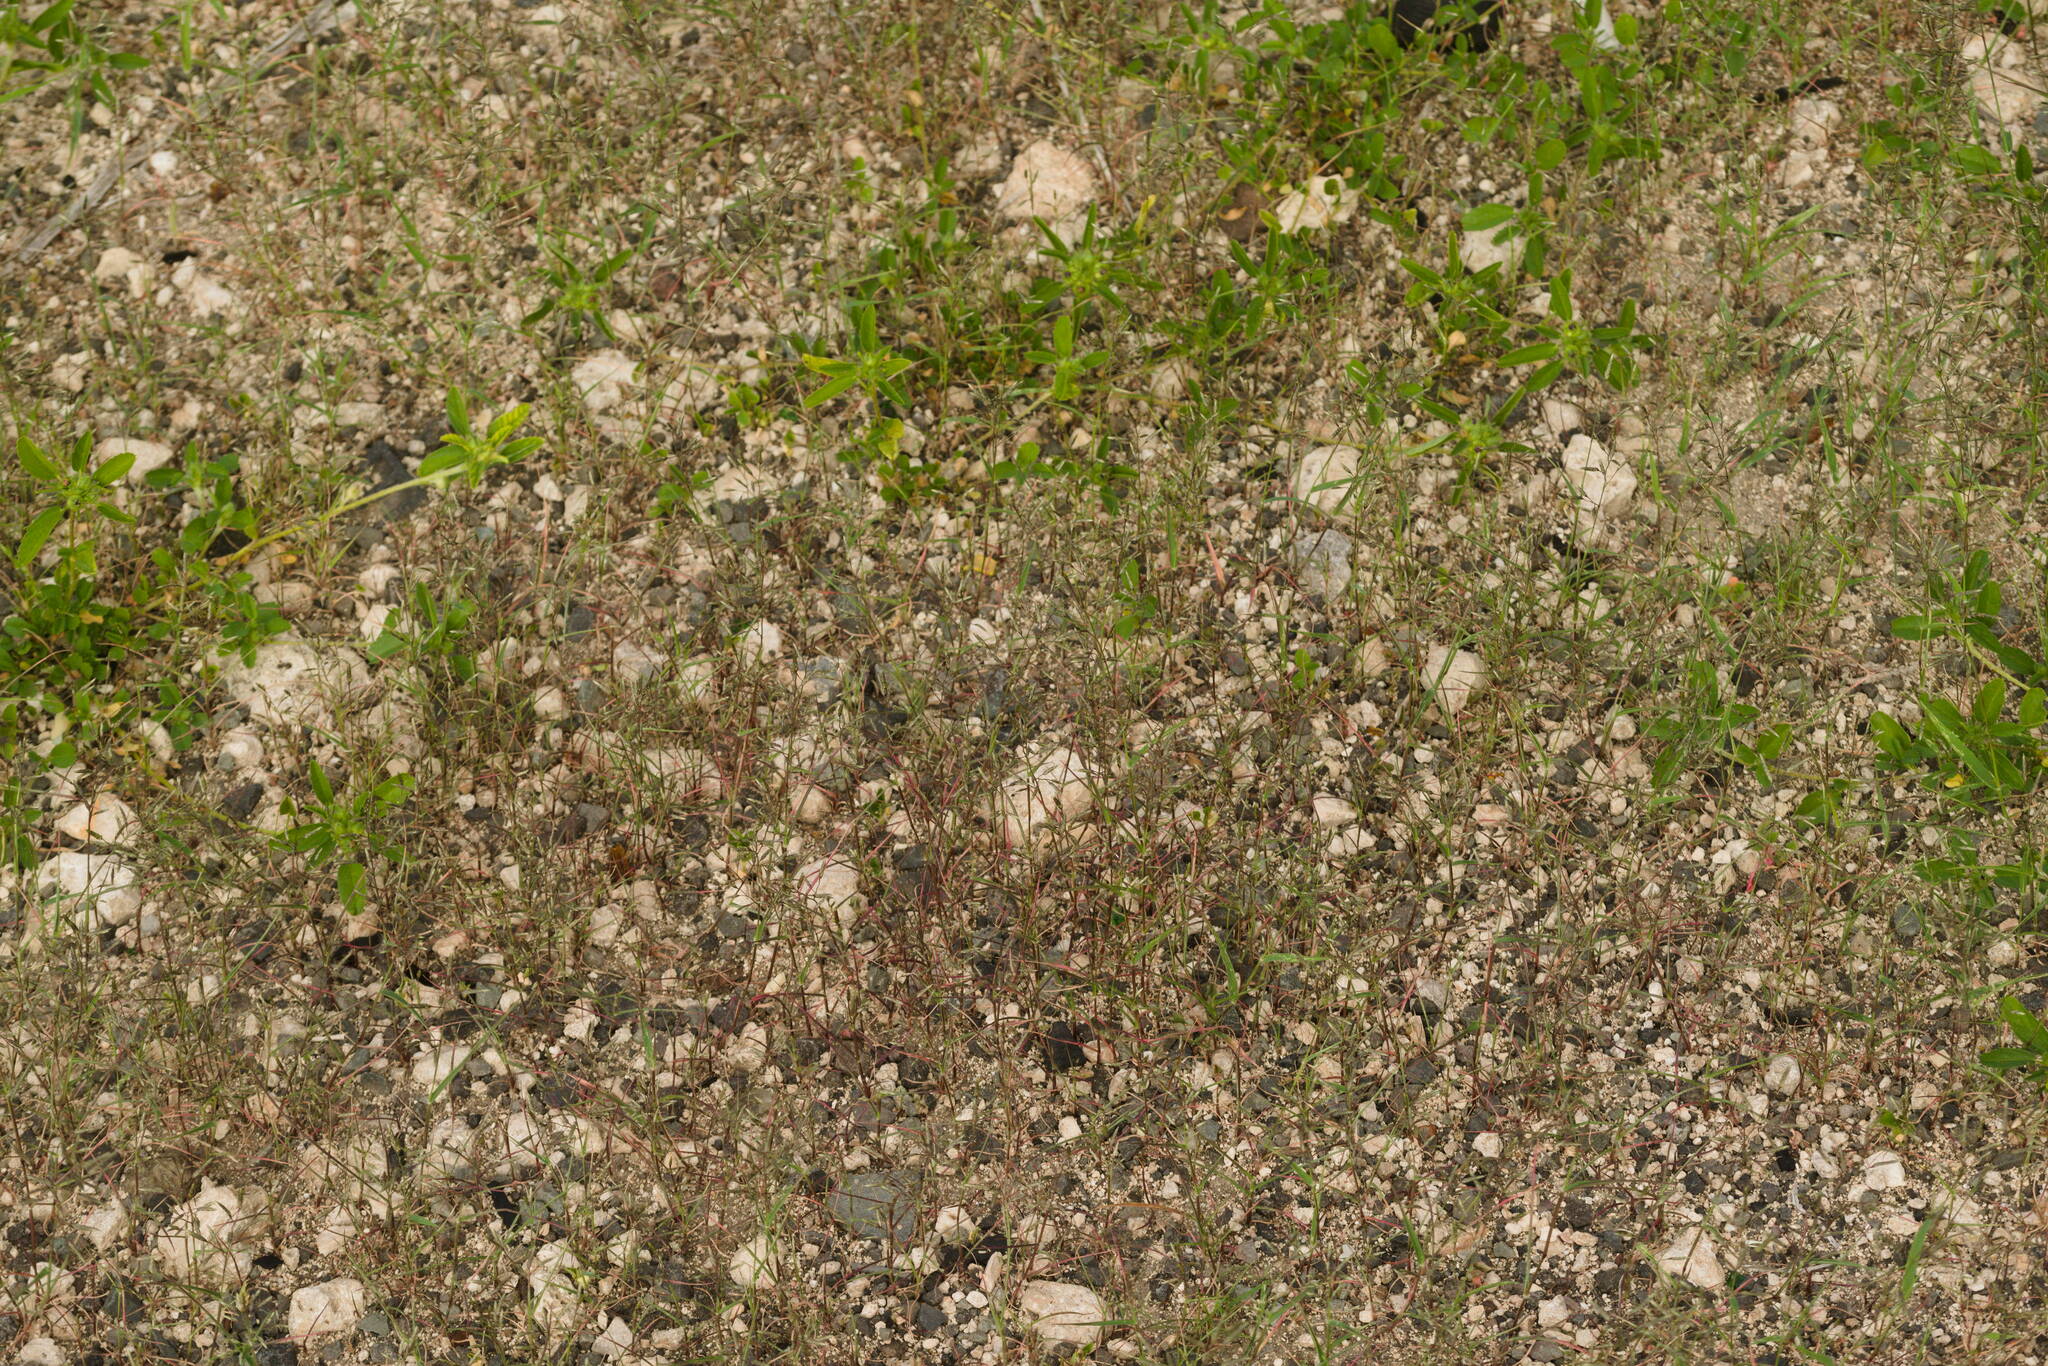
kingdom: Plantae
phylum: Tracheophyta
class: Liliopsida
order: Poales
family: Poaceae
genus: Eragrostis
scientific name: Eragrostis barrelieri
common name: Mediterranean lovegrass
